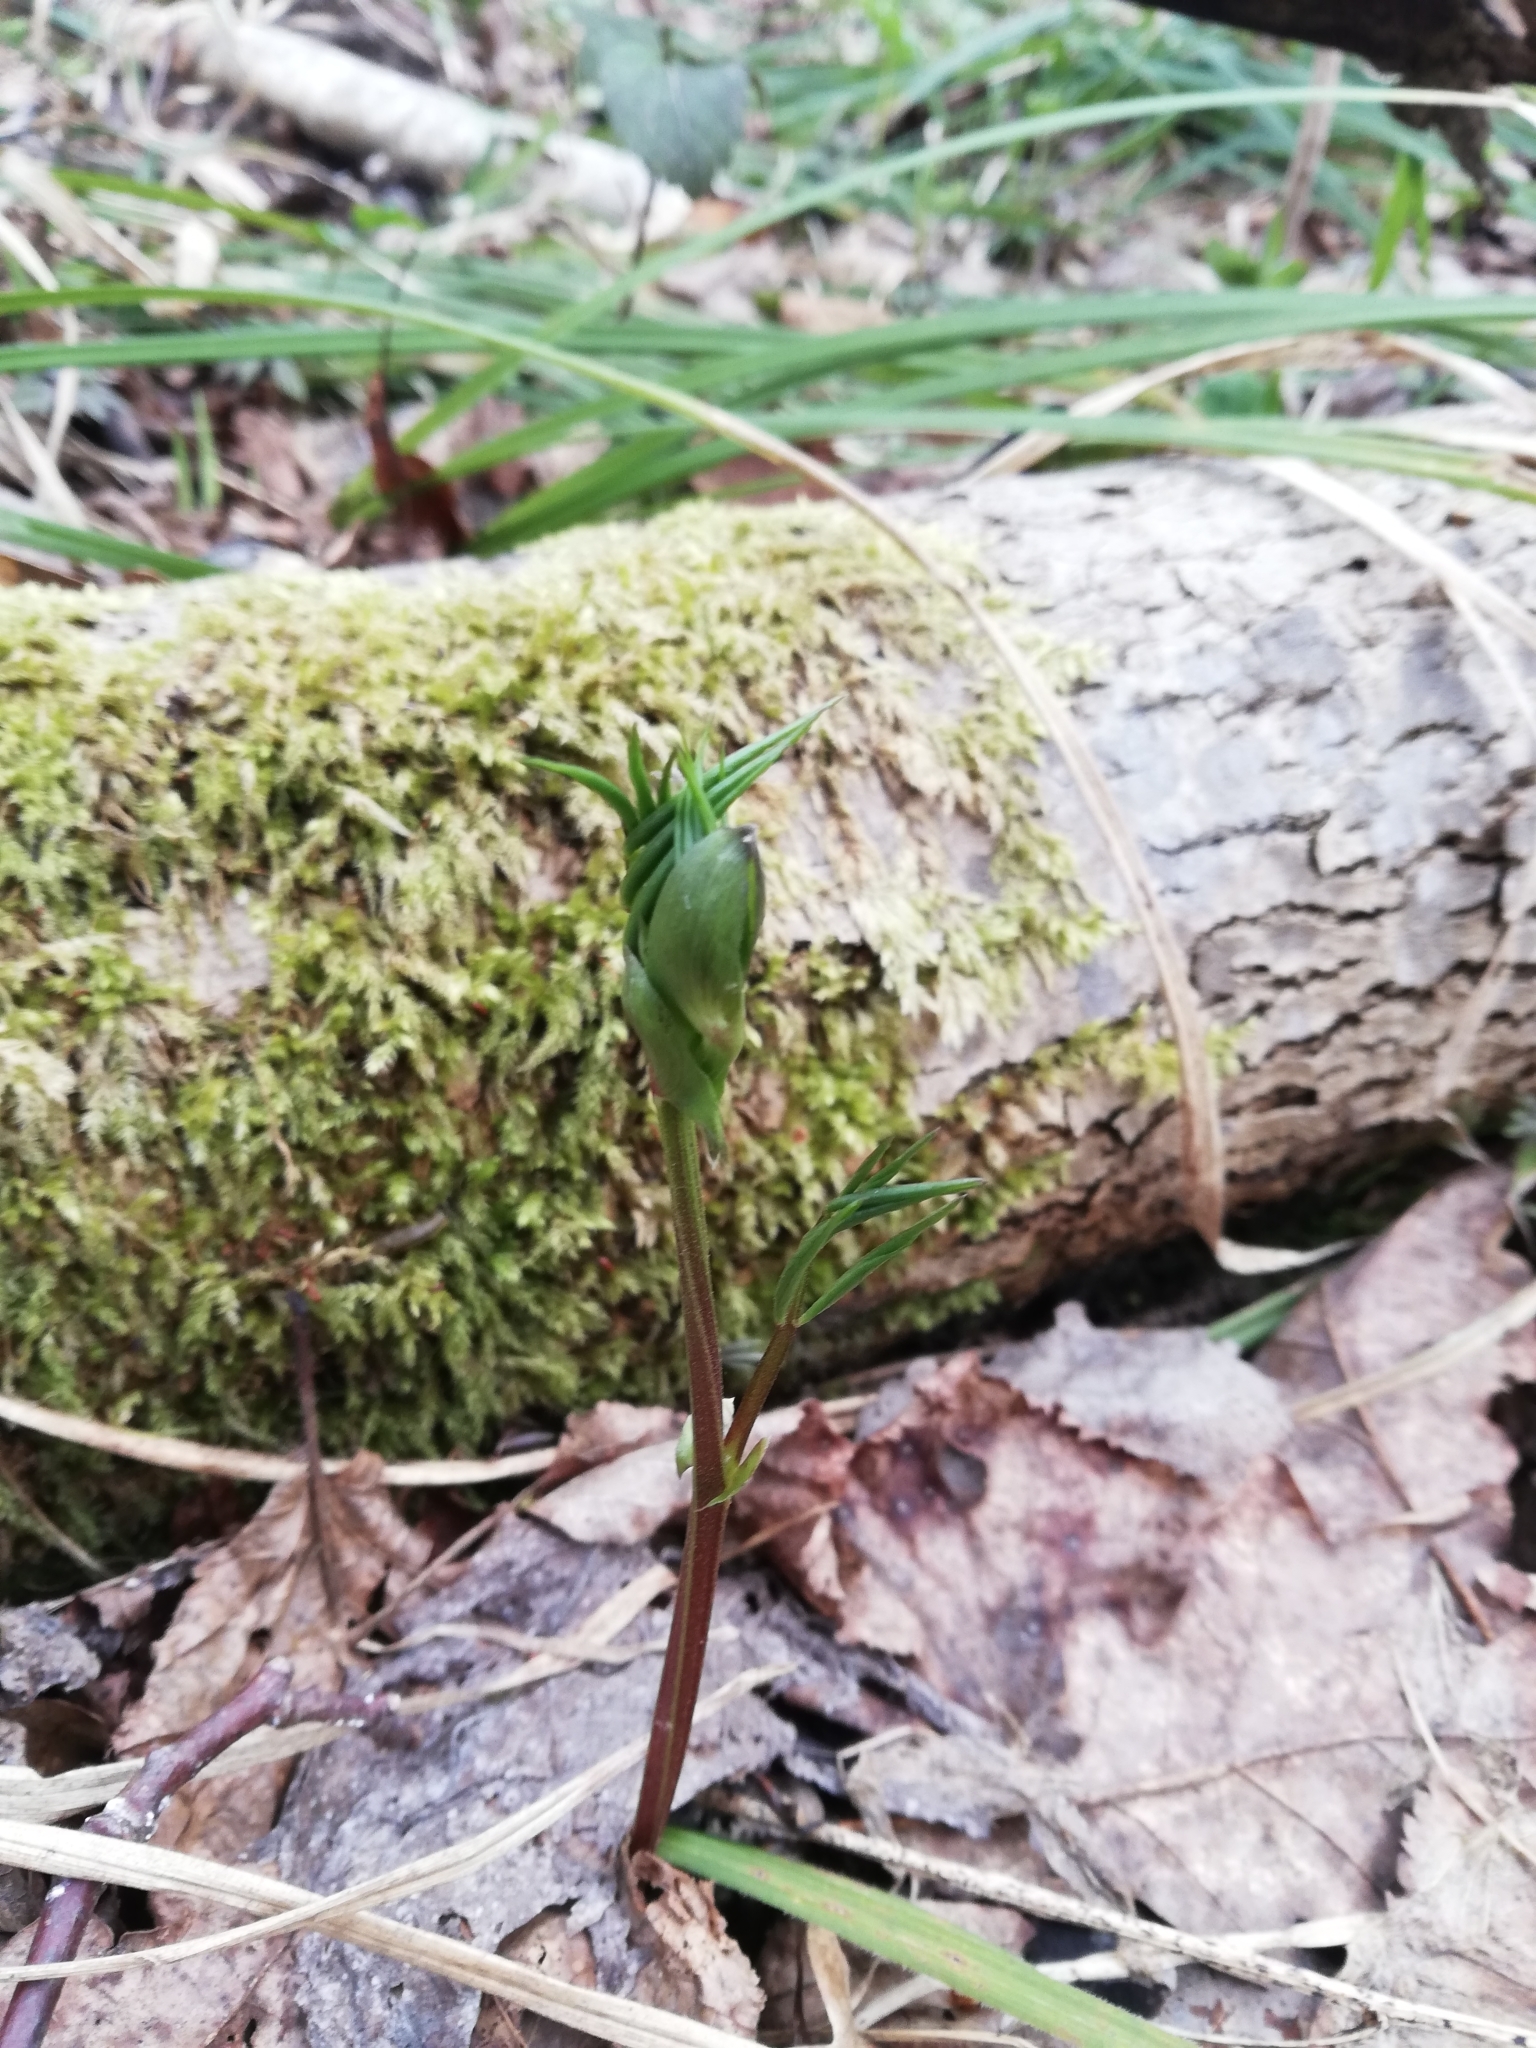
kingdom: Plantae
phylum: Tracheophyta
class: Magnoliopsida
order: Fabales
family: Fabaceae
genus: Lathyrus
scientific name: Lathyrus vernus
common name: Spring pea
